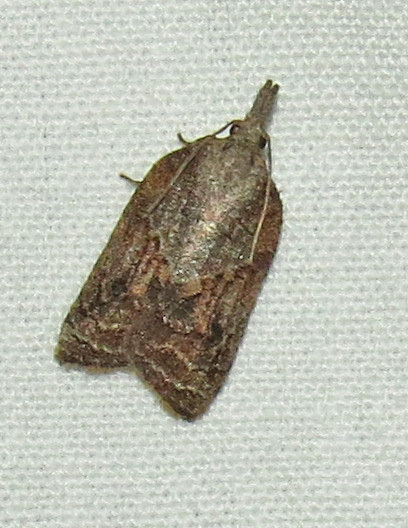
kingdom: Animalia
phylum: Arthropoda
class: Insecta
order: Lepidoptera
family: Tortricidae
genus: Platynota
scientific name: Platynota idaeusalis
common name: Tufted apple bud moth
